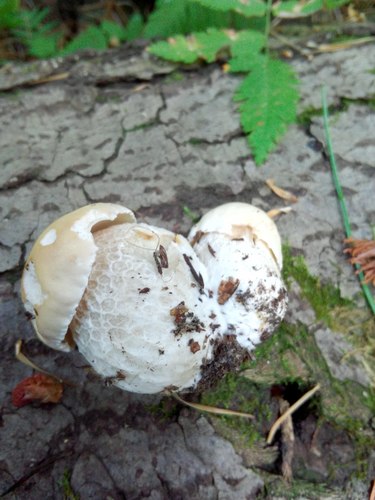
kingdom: Fungi
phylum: Basidiomycota
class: Agaricomycetes
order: Boletales
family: Boletaceae
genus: Boletus
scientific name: Boletus edulis
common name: Cep
